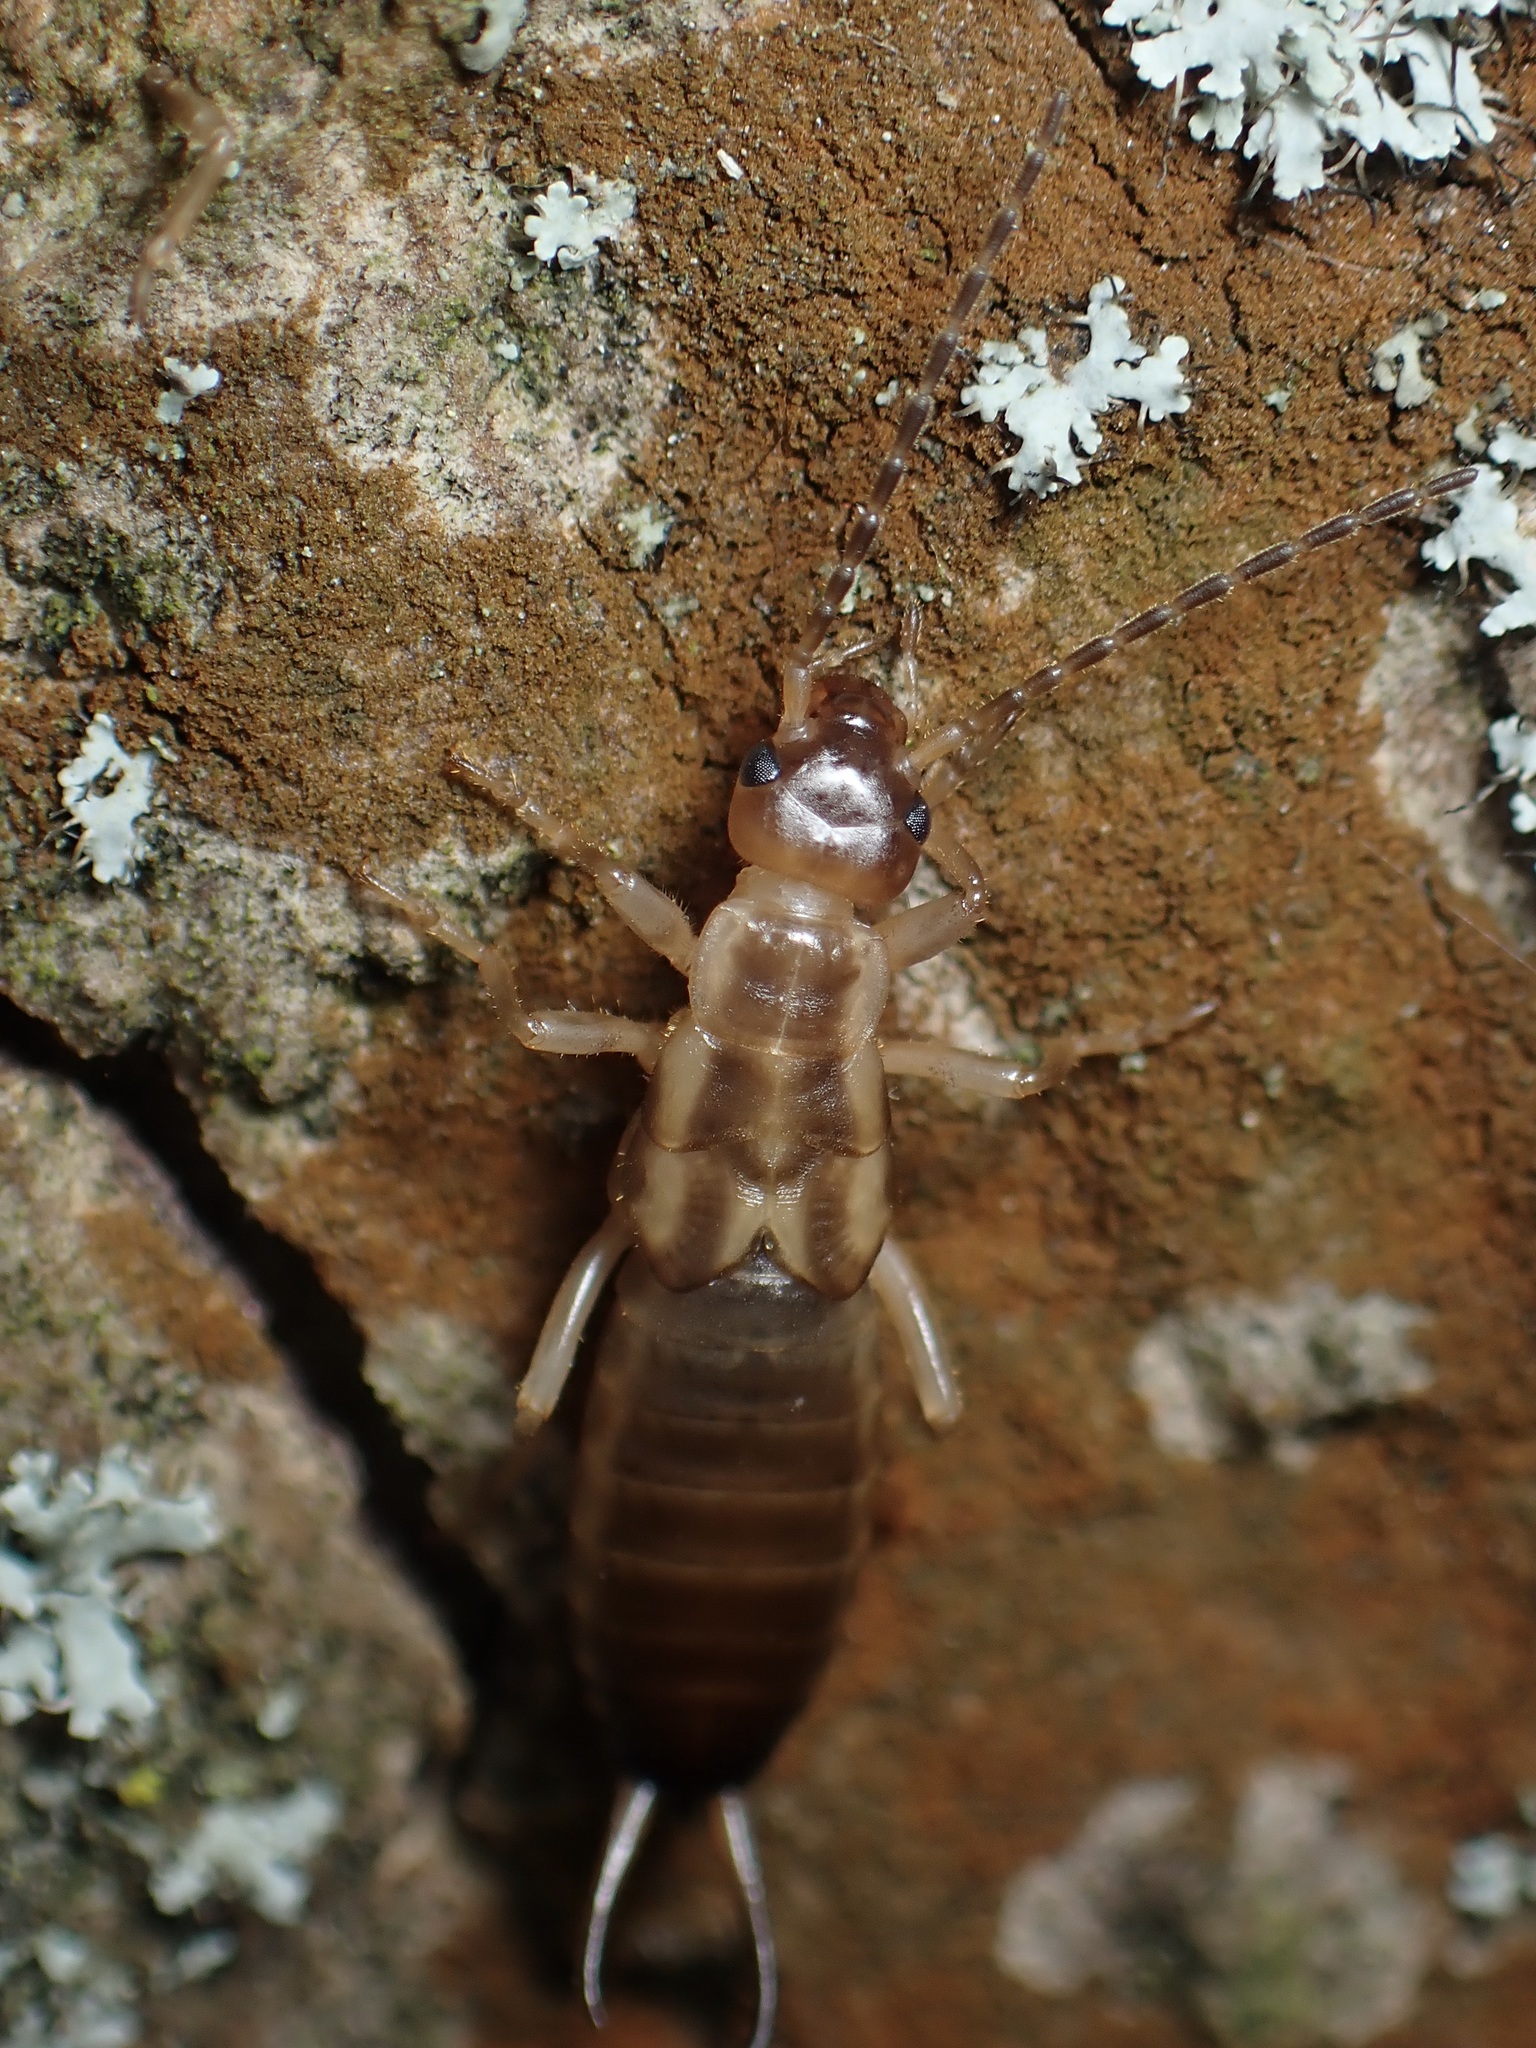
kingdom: Animalia
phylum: Arthropoda
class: Insecta
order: Dermaptera
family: Forficulidae
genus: Forficula
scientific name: Forficula
